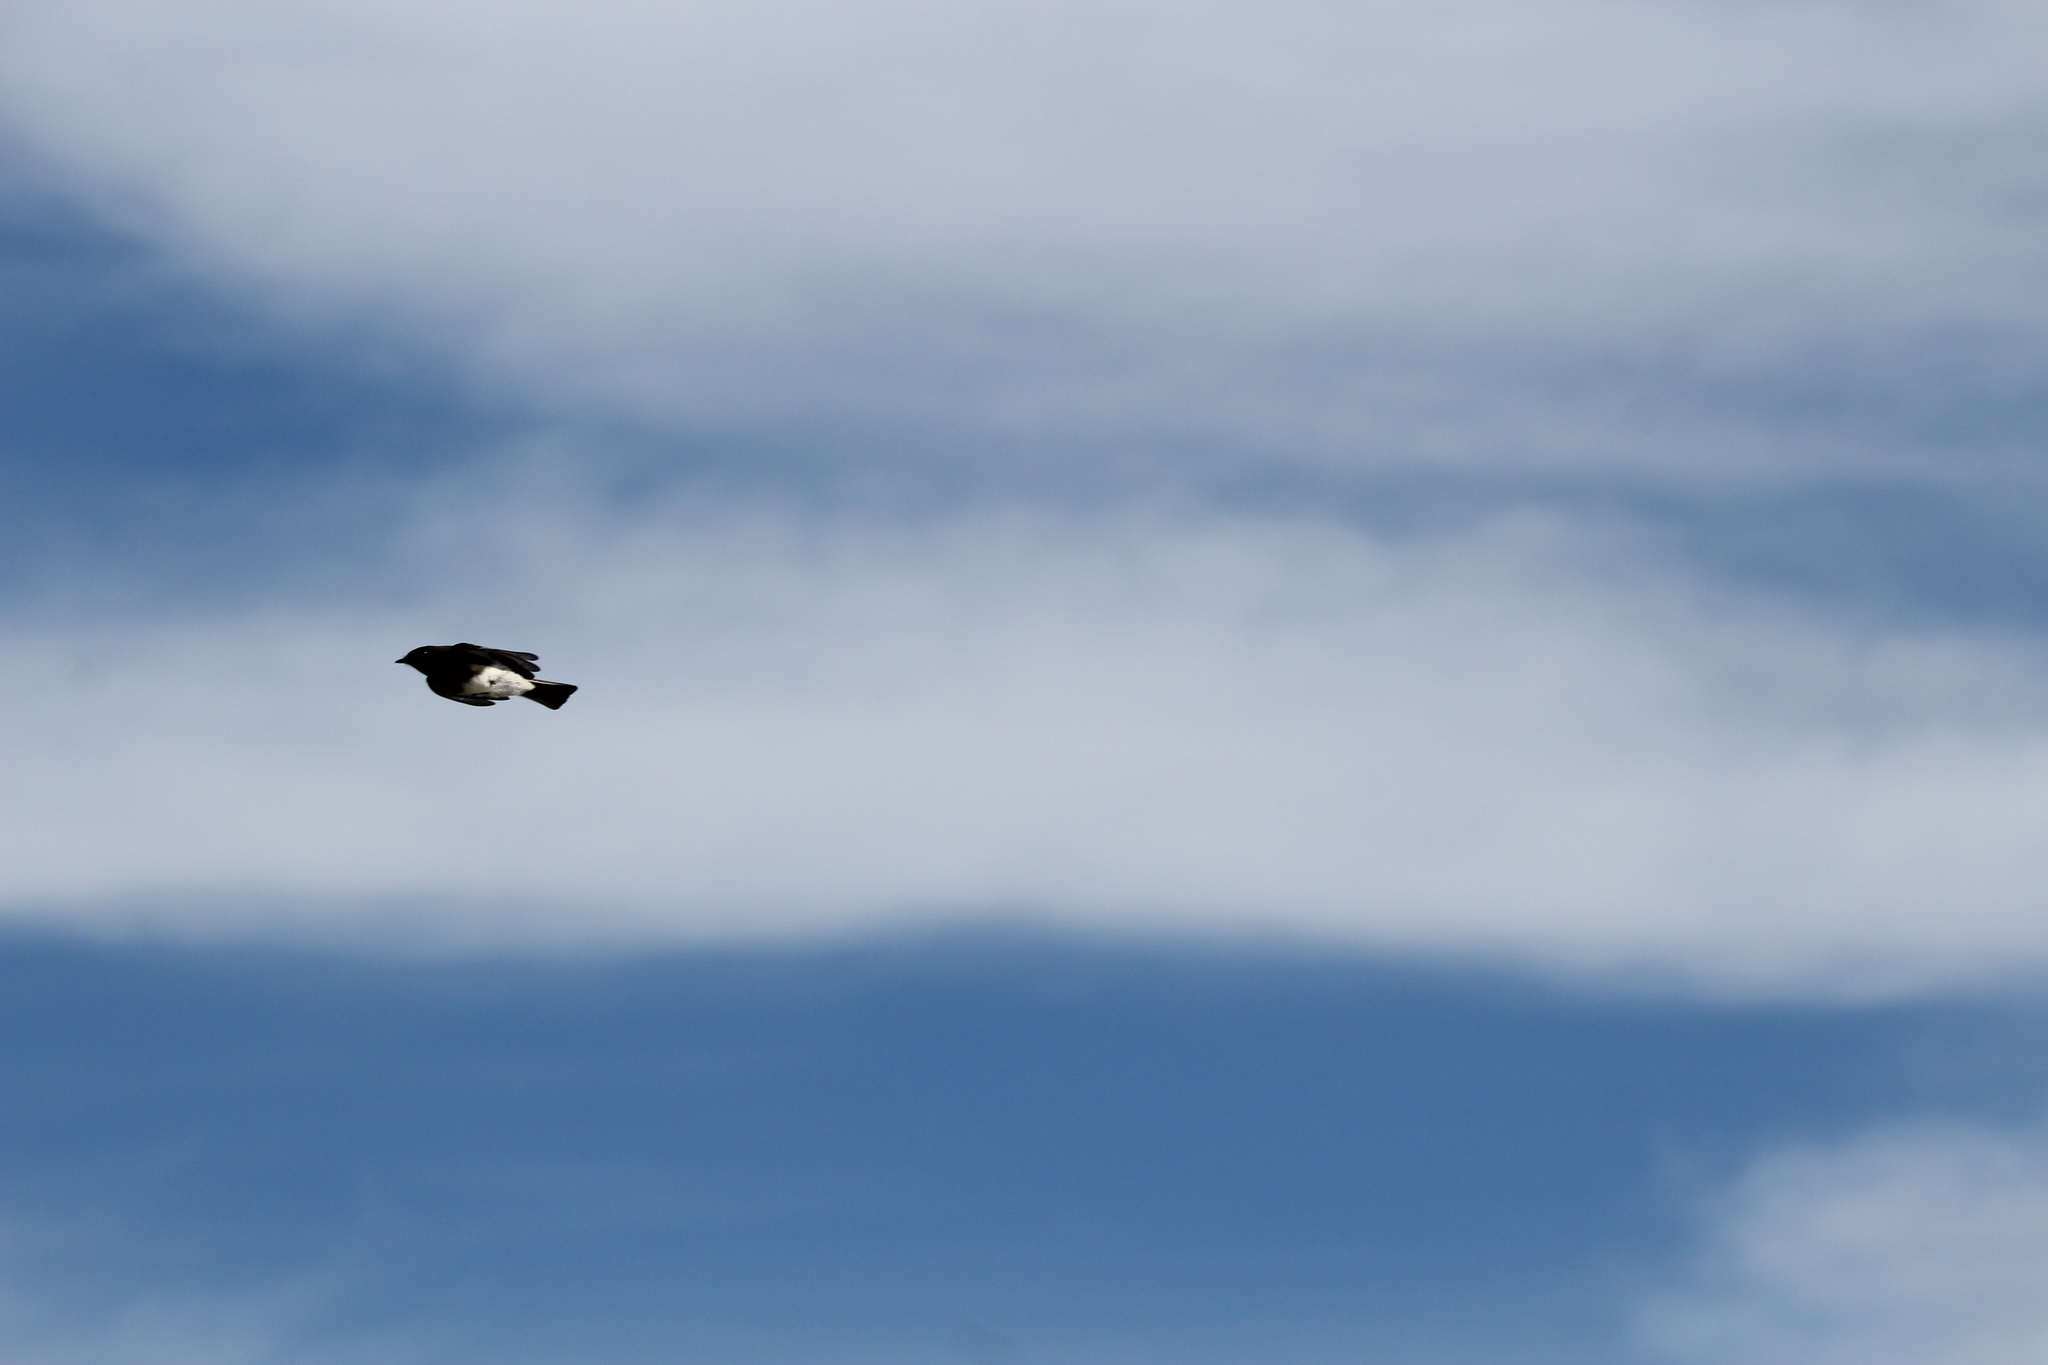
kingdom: Animalia
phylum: Chordata
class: Aves
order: Passeriformes
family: Tyrannidae
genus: Sayornis
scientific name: Sayornis nigricans
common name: Black phoebe
